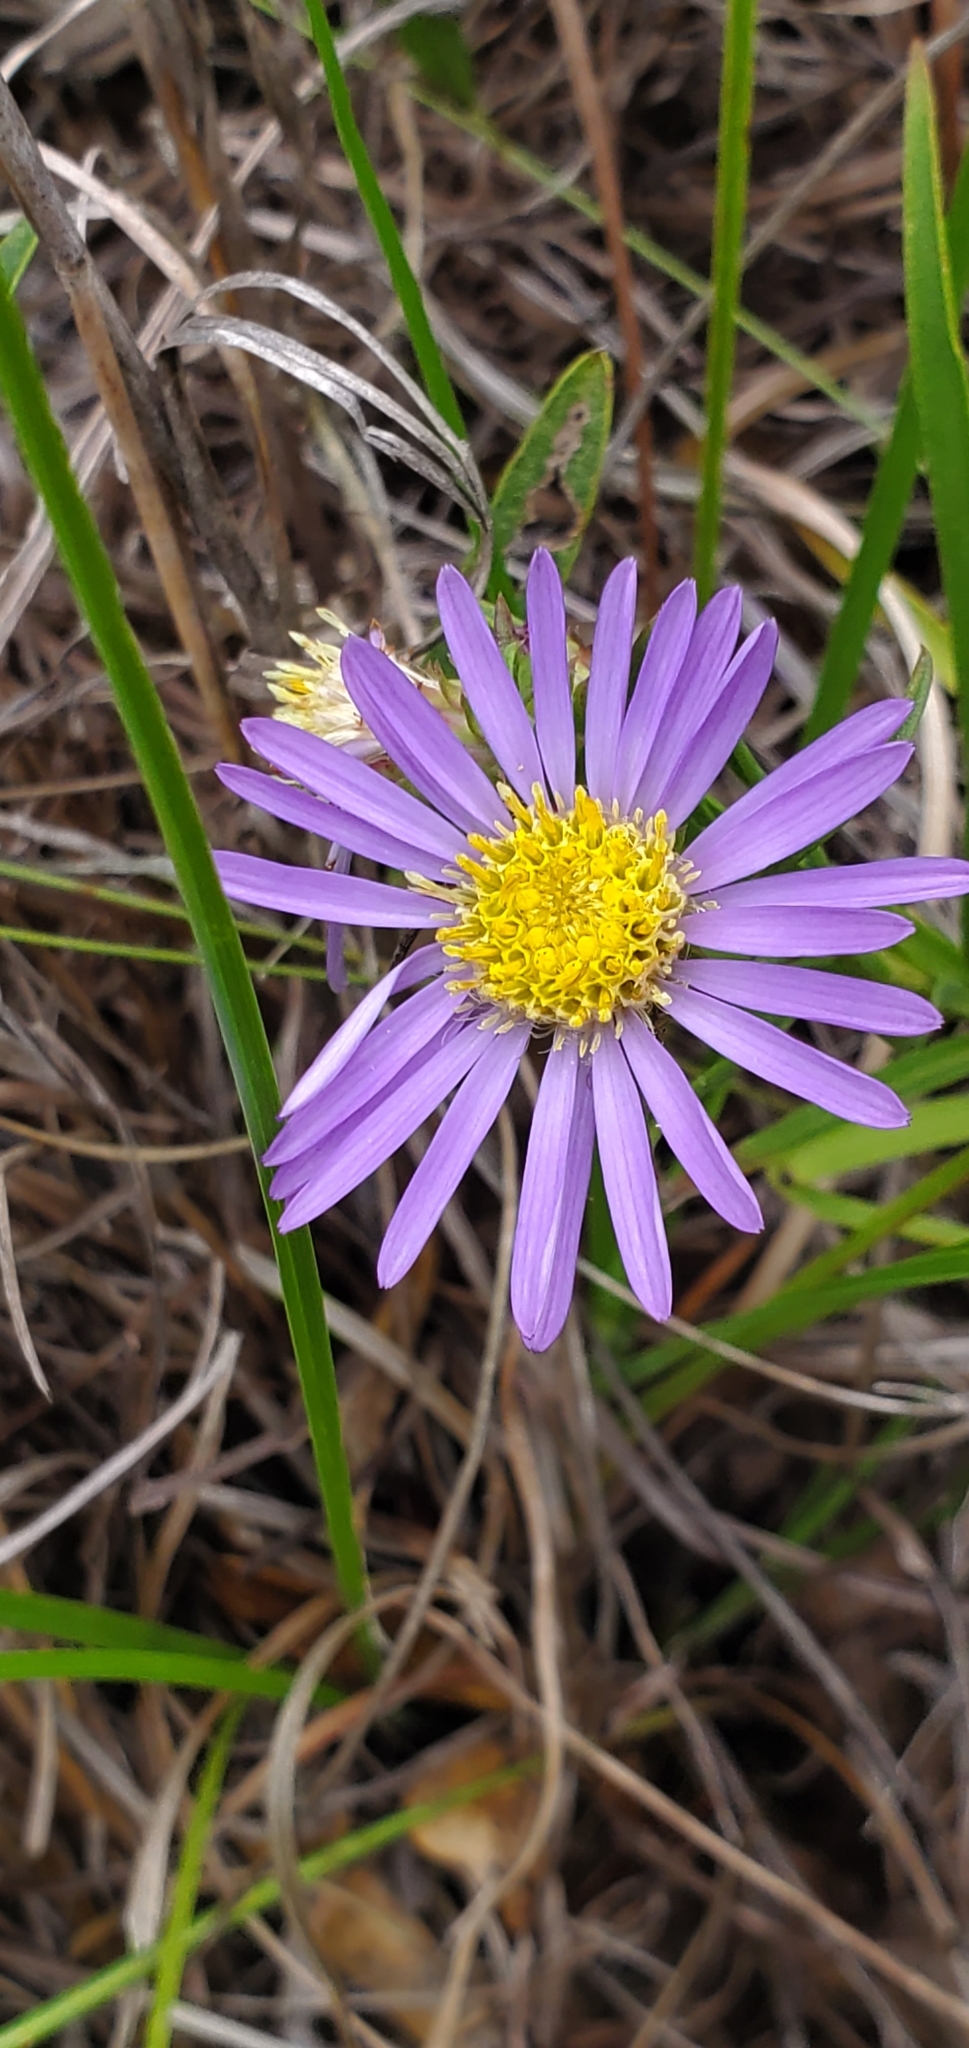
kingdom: Plantae
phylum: Tracheophyta
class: Magnoliopsida
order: Asterales
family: Asteraceae
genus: Eurybia
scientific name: Eurybia hemispherica
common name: Showy aster
